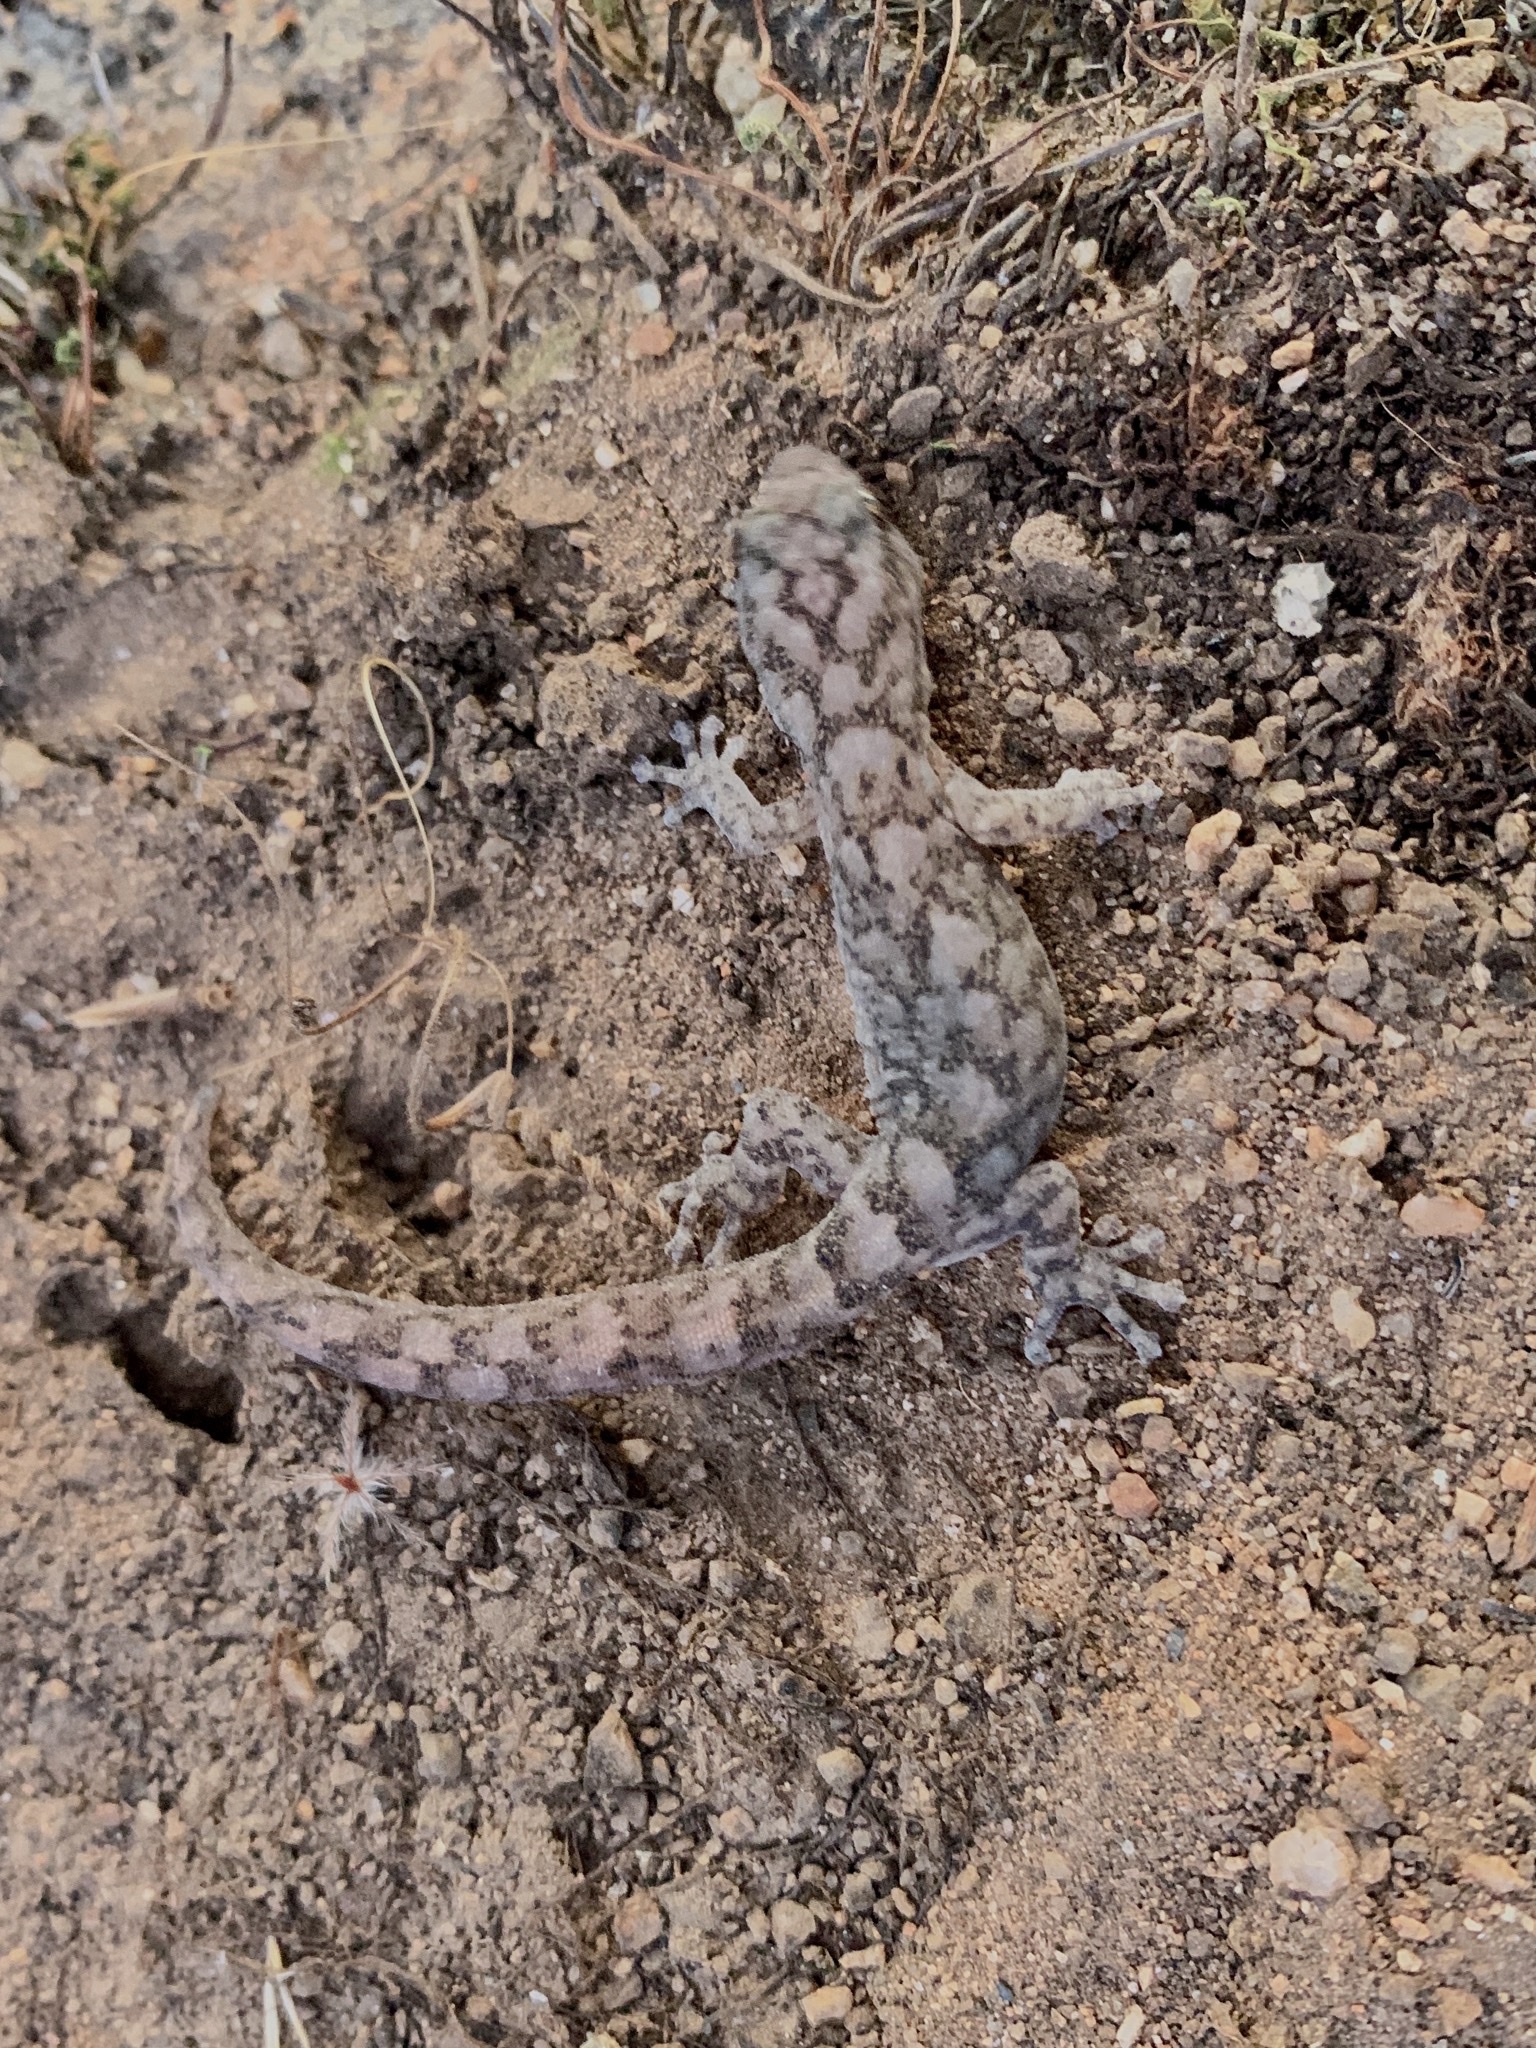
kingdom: Animalia
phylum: Chordata
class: Squamata
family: Gekkonidae
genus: Christinus
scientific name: Christinus marmoratus
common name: Marbled gecko
